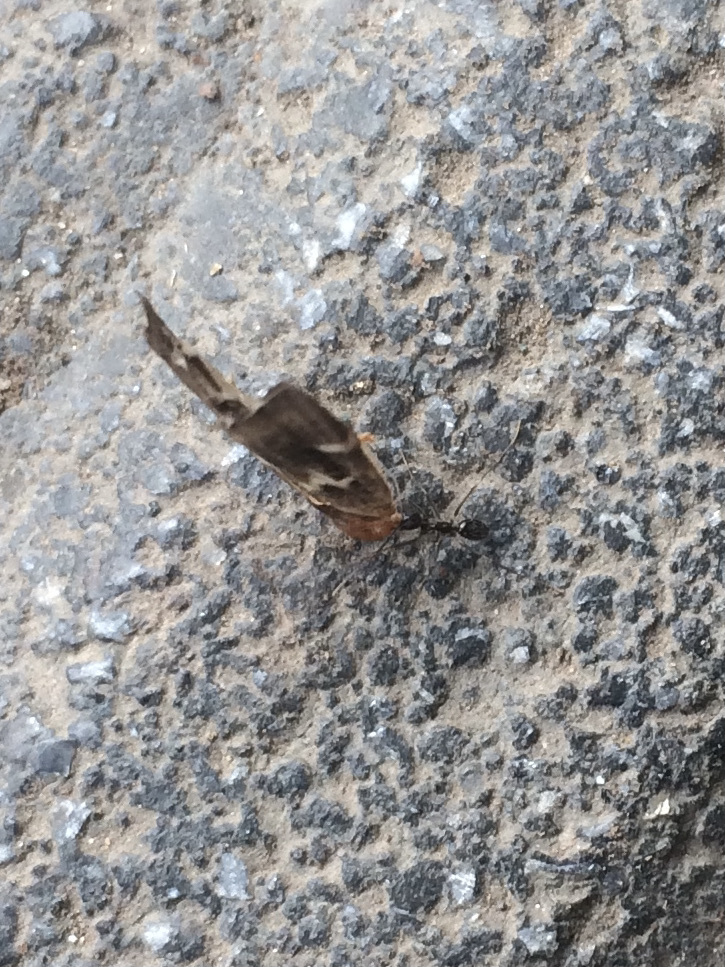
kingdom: Animalia
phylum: Arthropoda
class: Insecta
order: Hymenoptera
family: Formicidae
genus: Paratrechina
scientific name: Paratrechina longicornis
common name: Longhorned crazy ant
